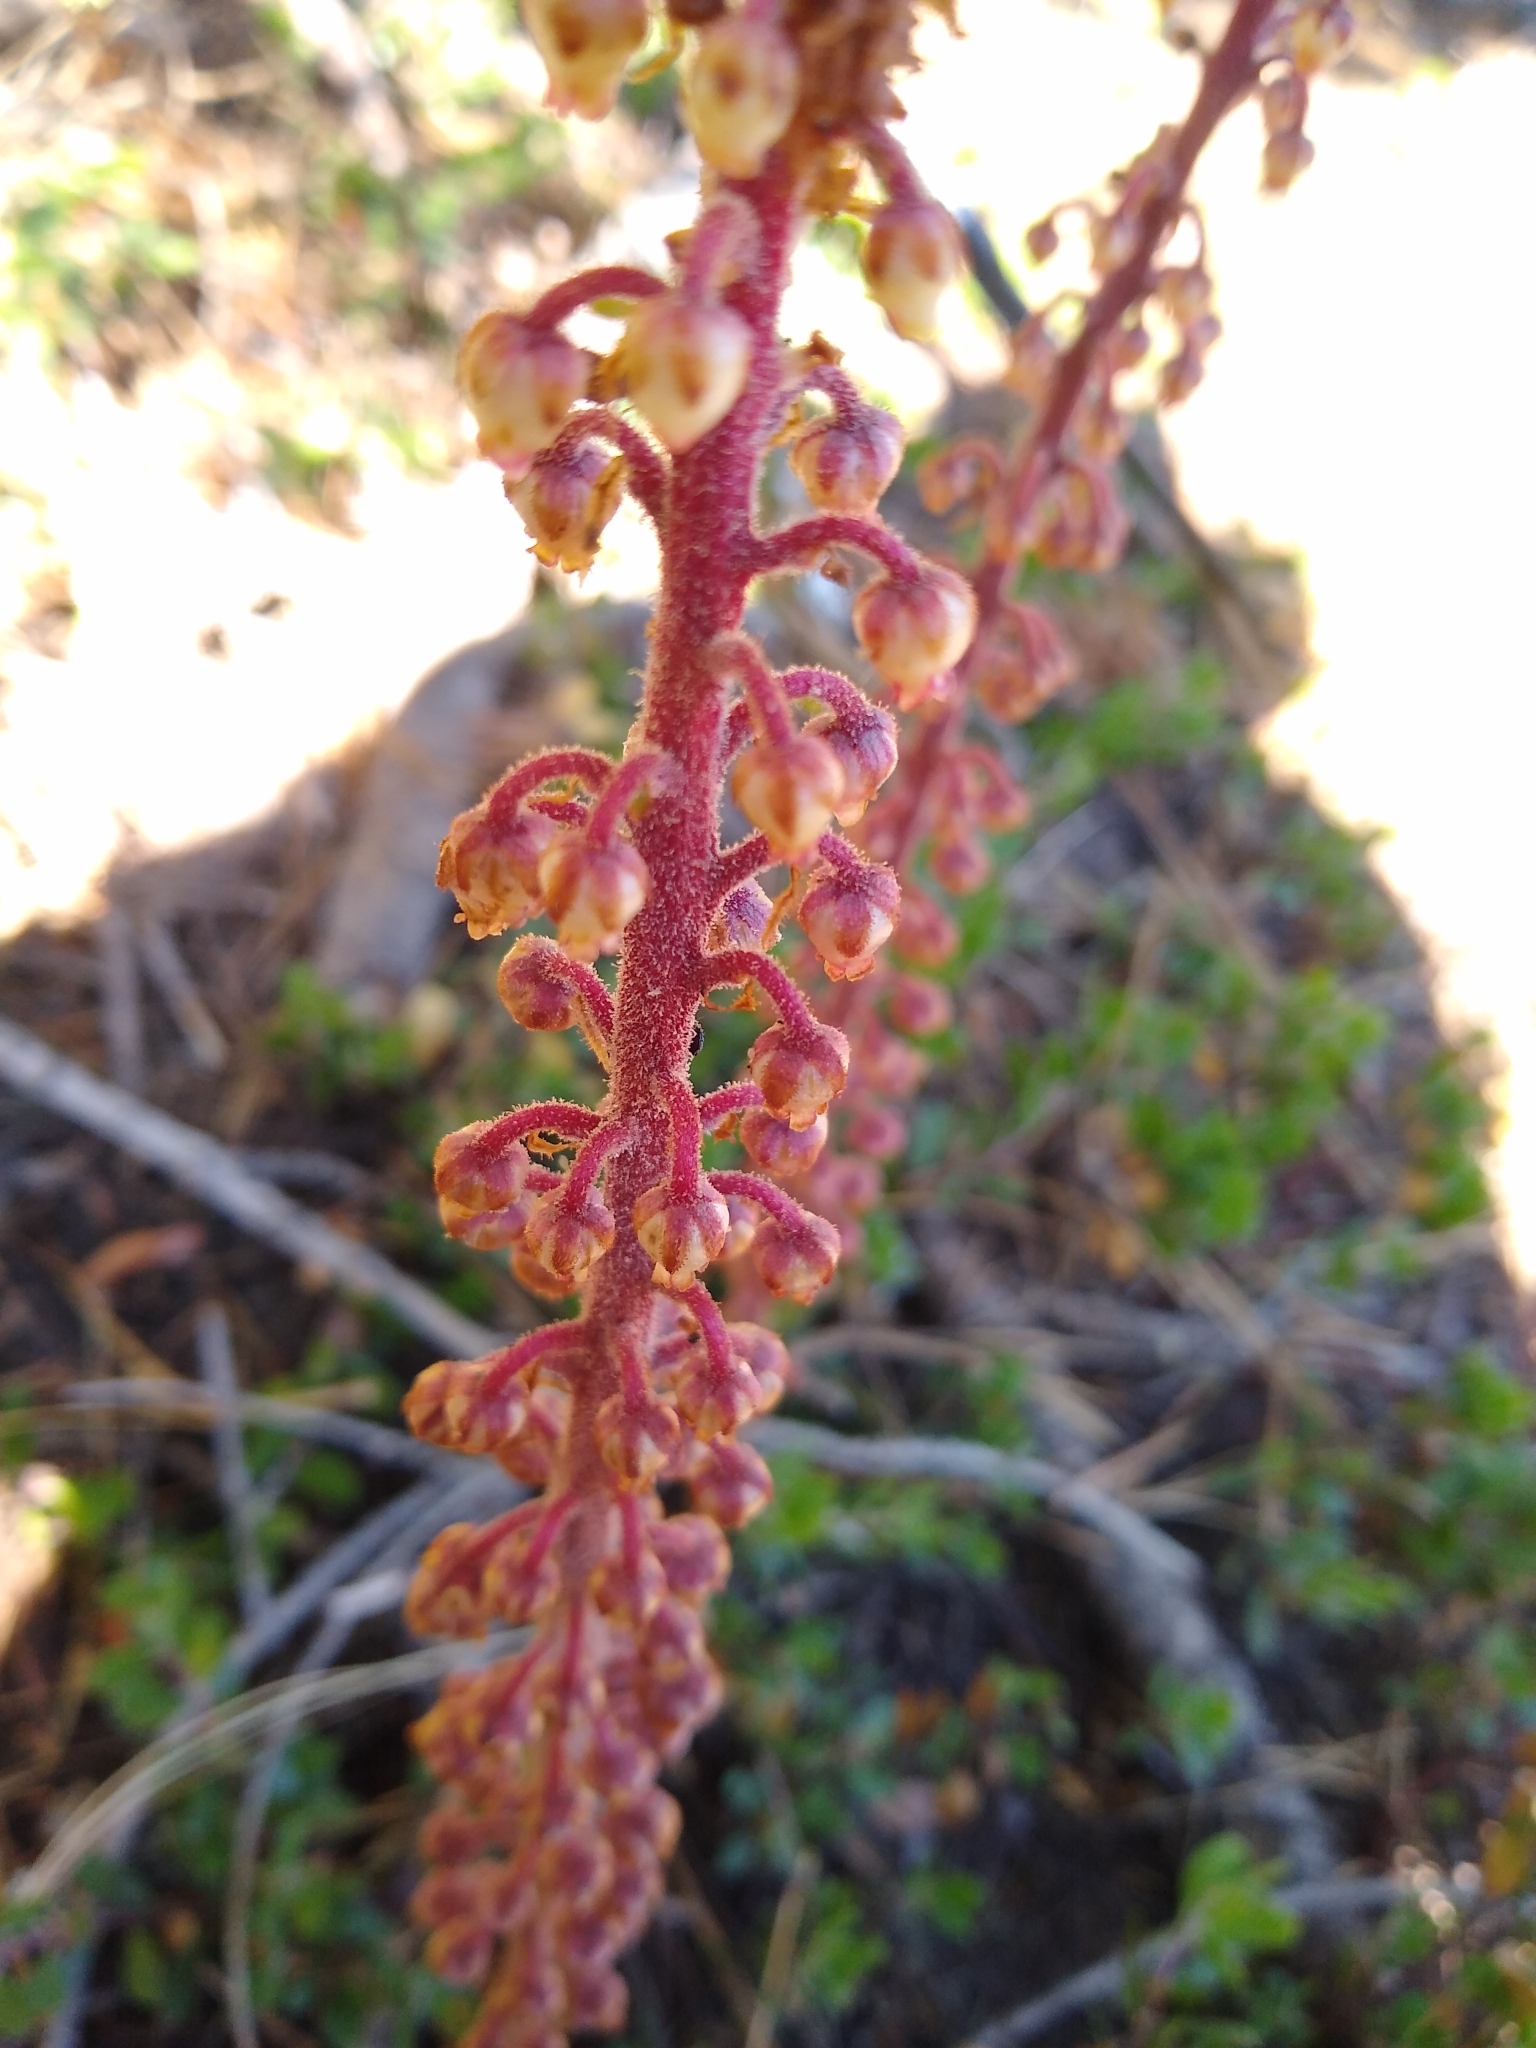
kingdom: Plantae
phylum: Tracheophyta
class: Magnoliopsida
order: Ericales
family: Ericaceae
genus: Pterospora
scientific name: Pterospora andromedea
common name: Giant bird's-nest
